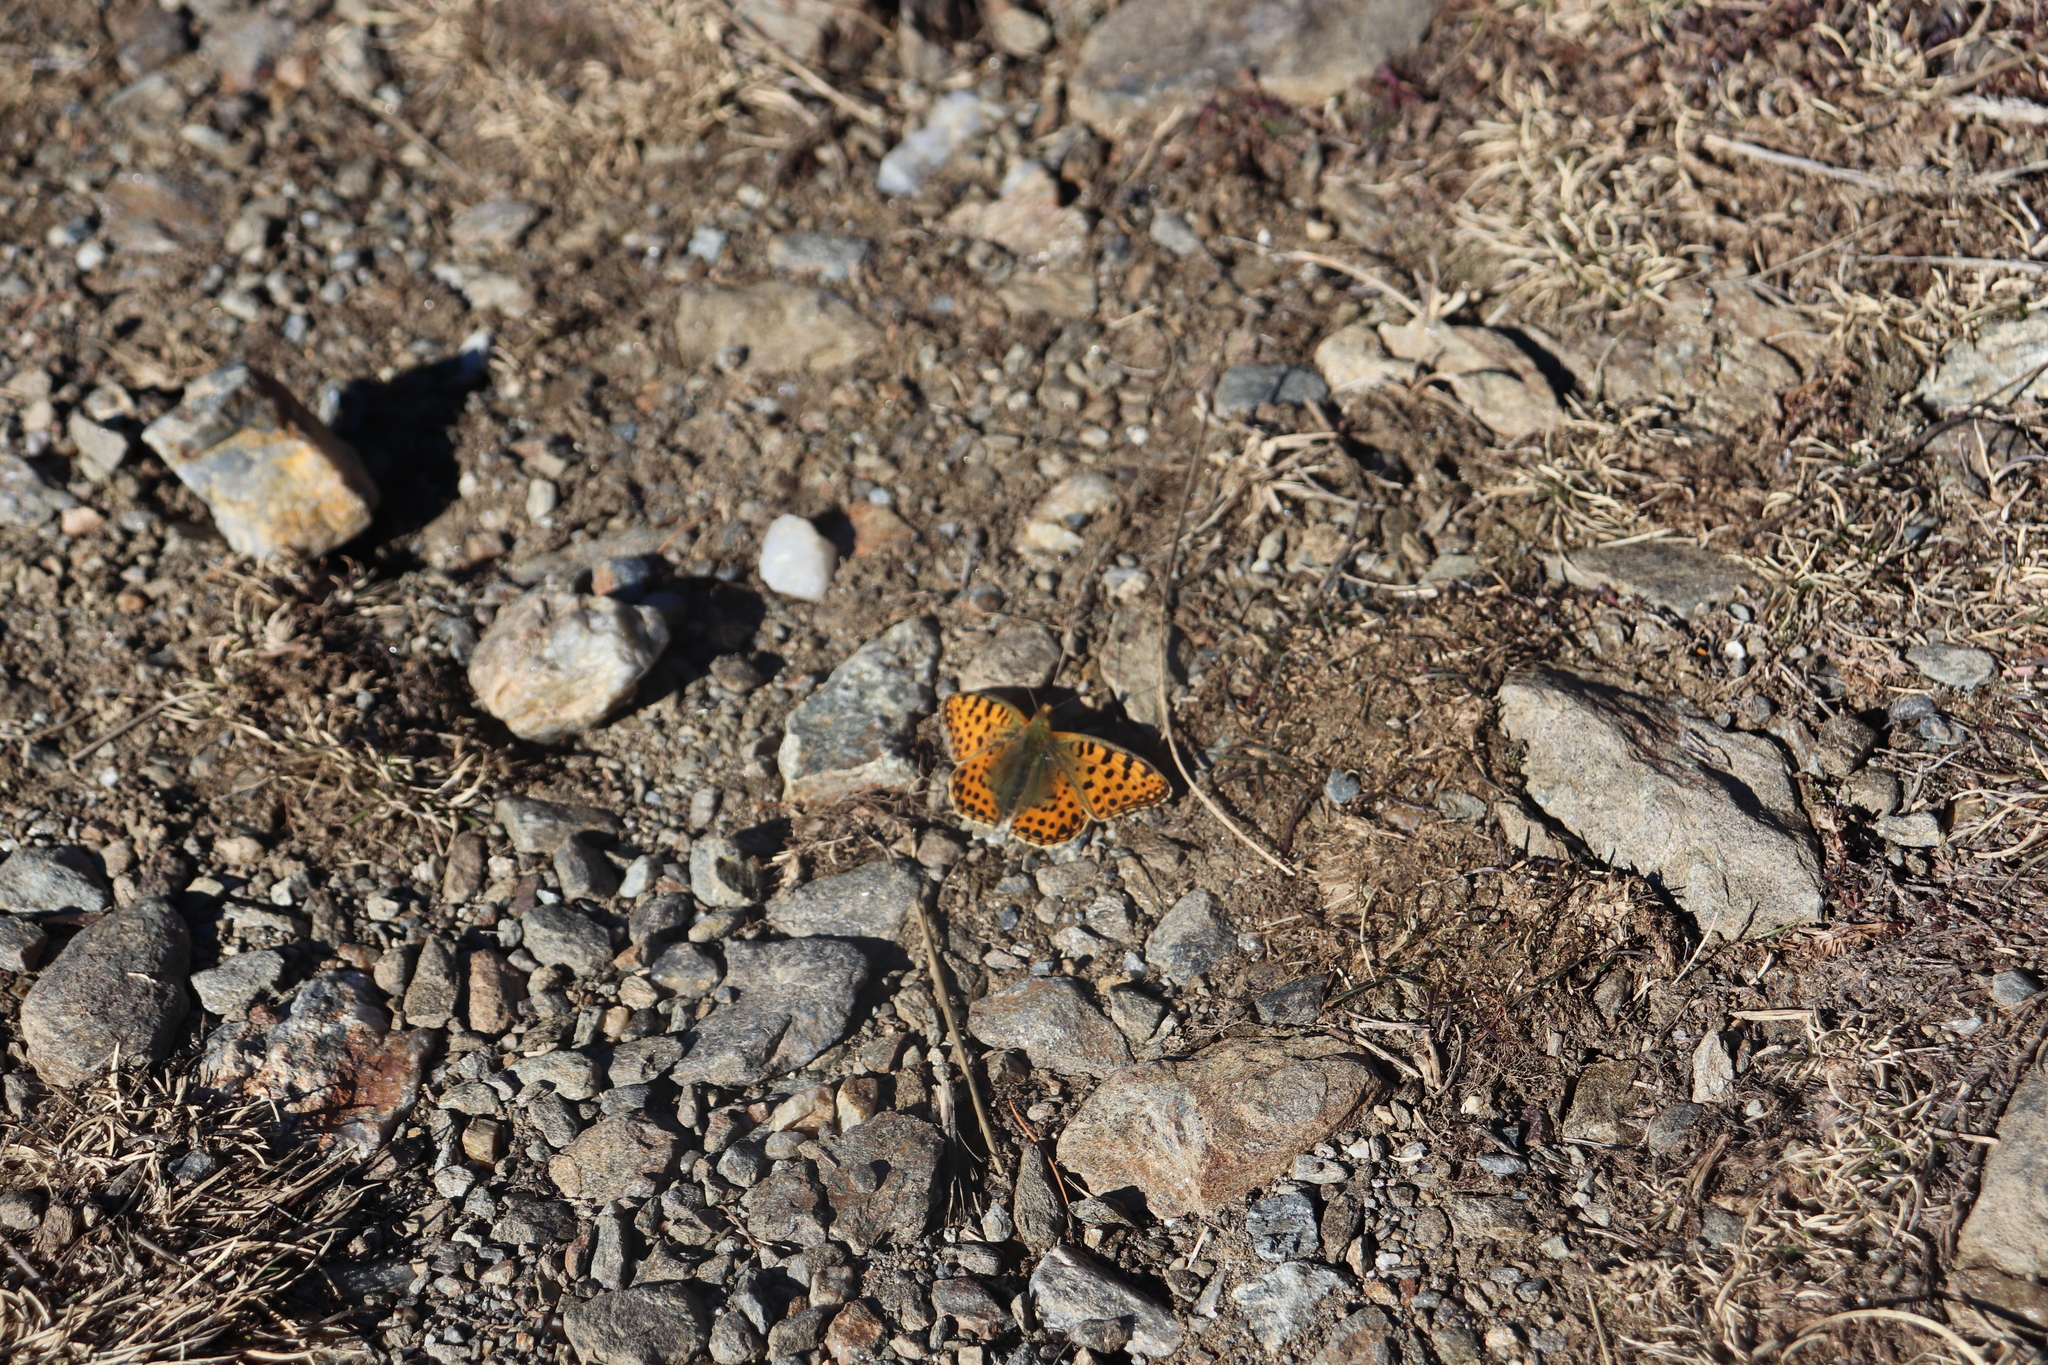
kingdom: Animalia
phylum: Arthropoda
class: Insecta
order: Lepidoptera
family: Nymphalidae
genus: Issoria
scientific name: Issoria lathonia
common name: Queen of spain fritillary
